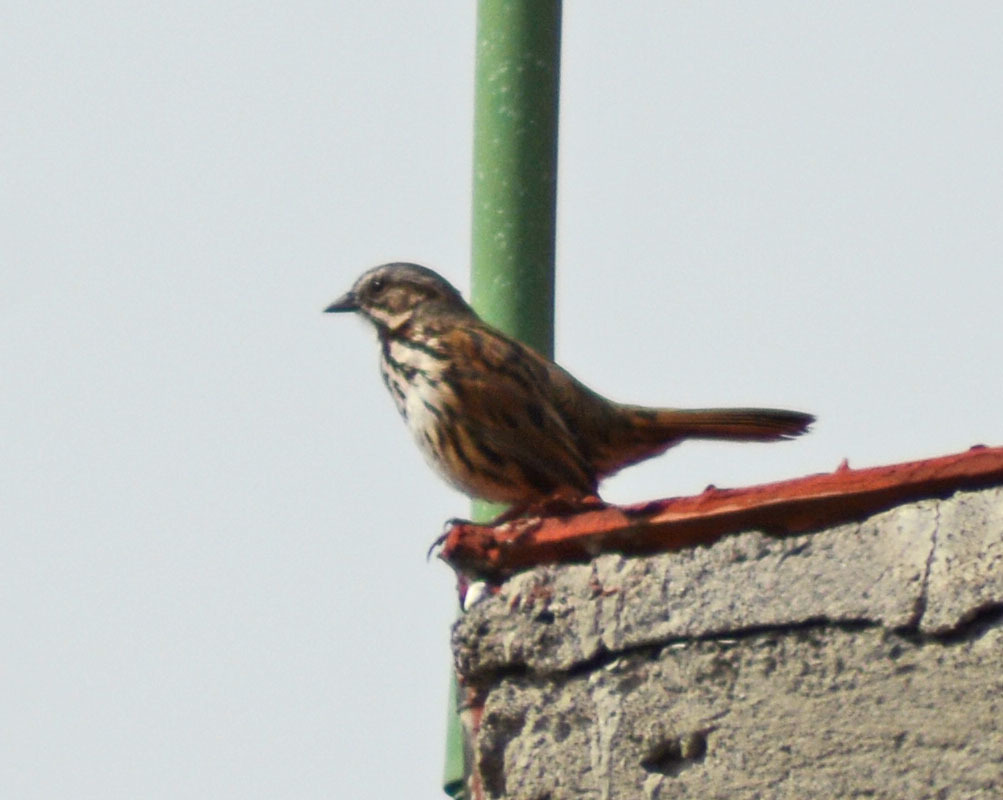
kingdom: Animalia
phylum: Chordata
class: Aves
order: Passeriformes
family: Passerellidae
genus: Melospiza
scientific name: Melospiza melodia
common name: Song sparrow
